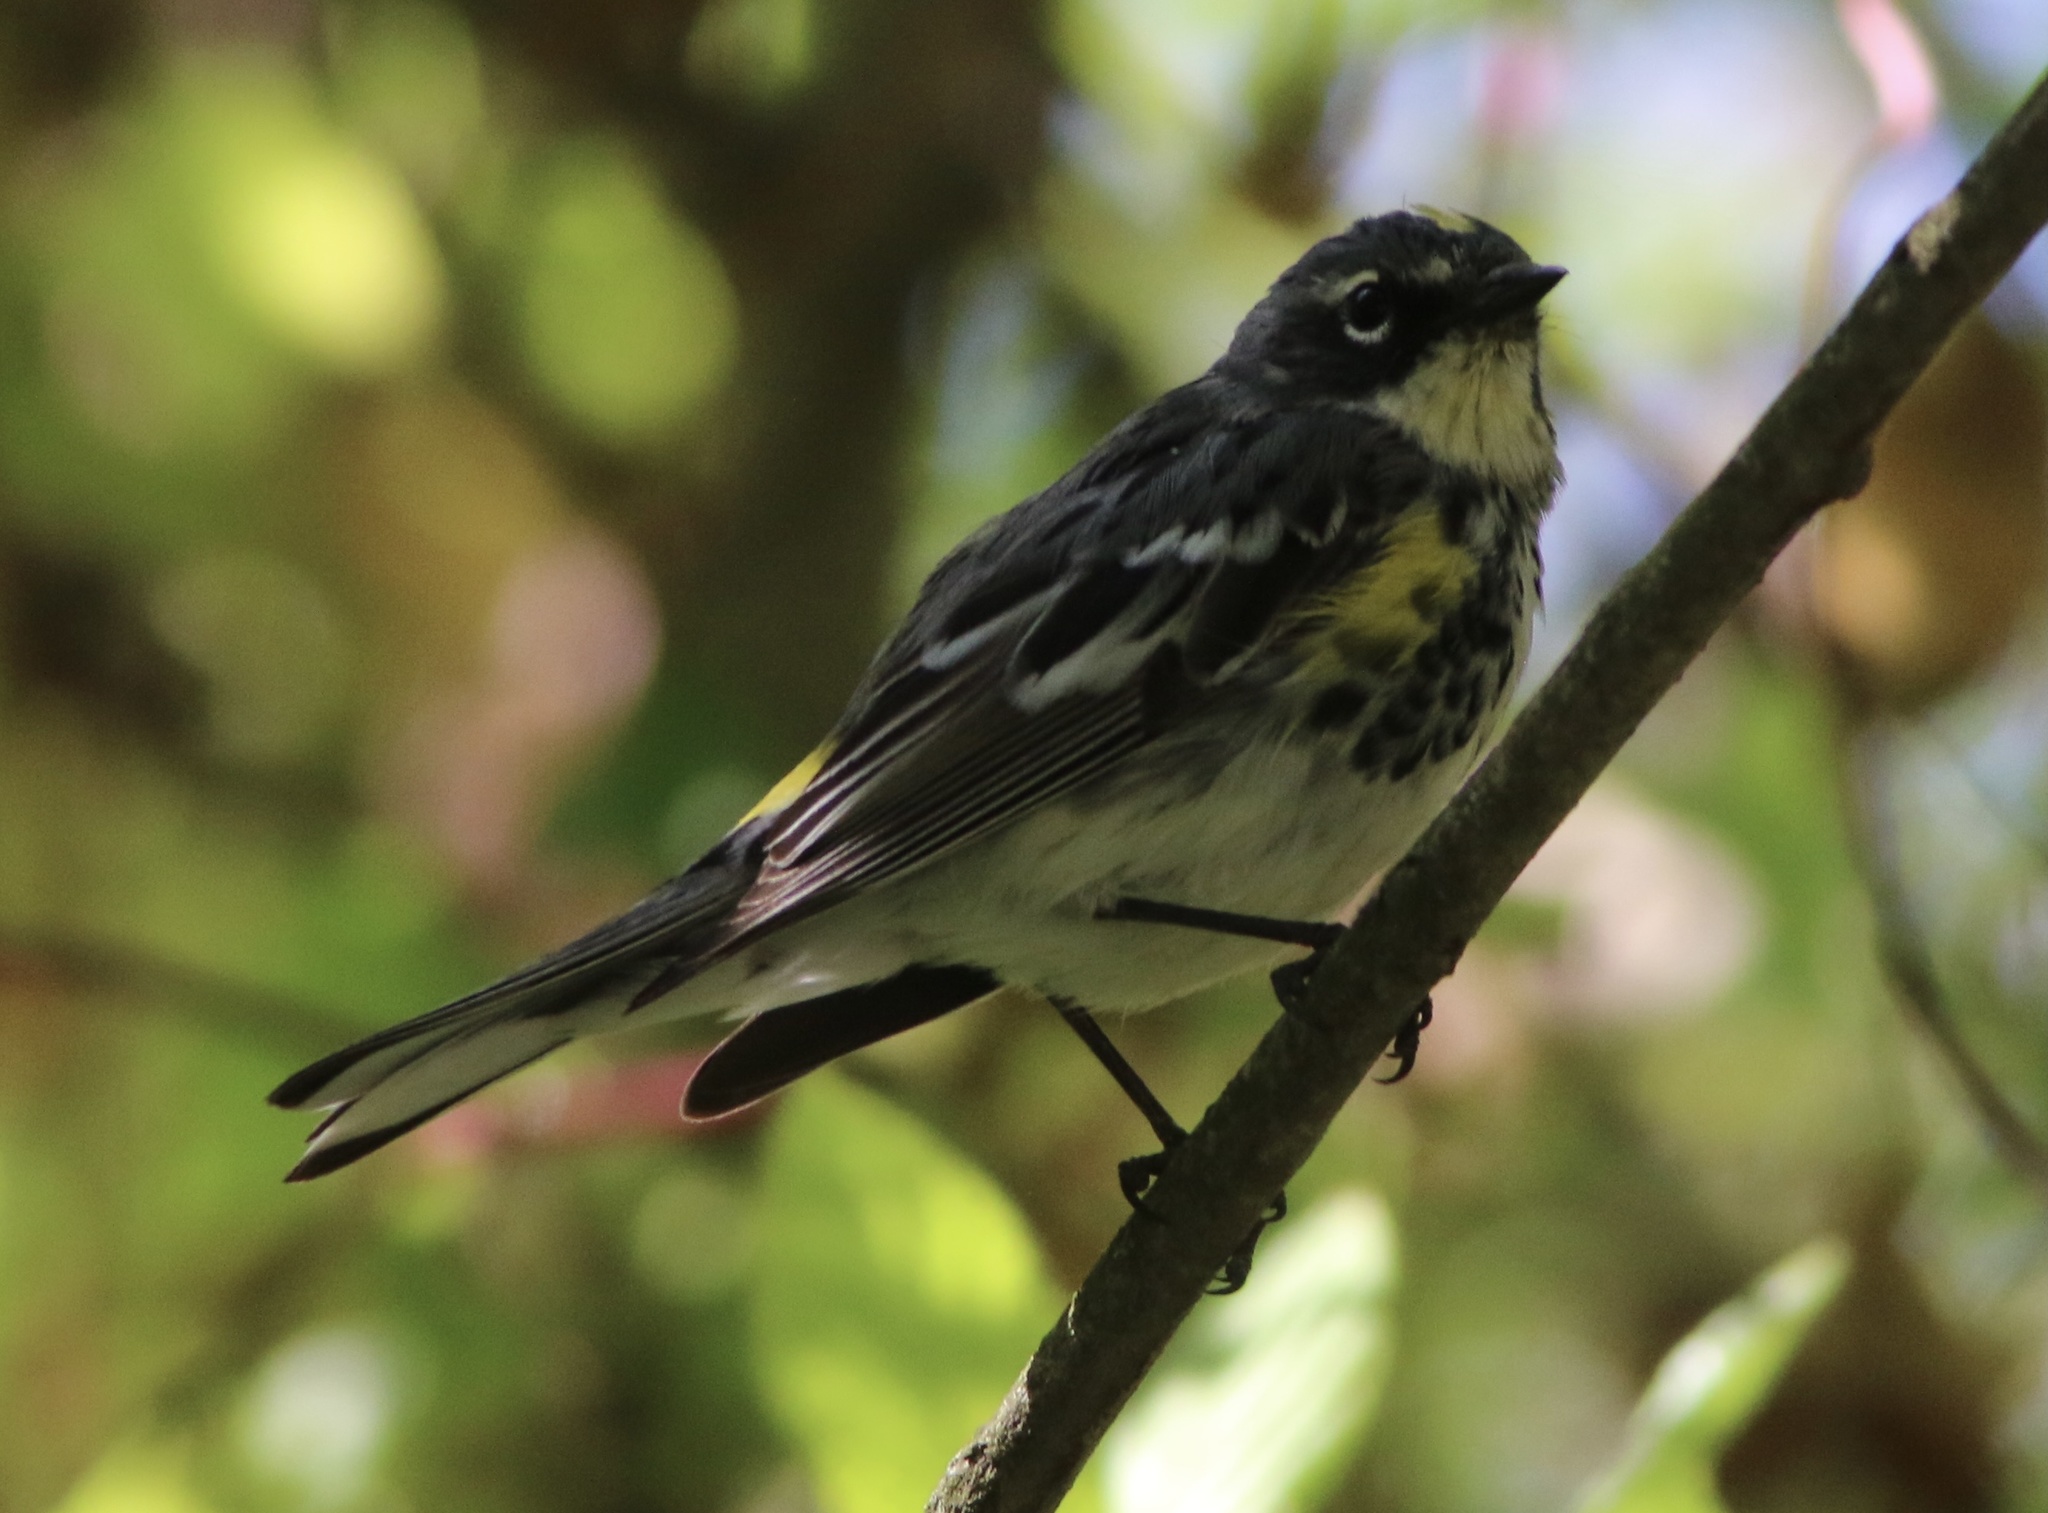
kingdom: Animalia
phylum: Chordata
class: Aves
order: Passeriformes
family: Parulidae
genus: Setophaga
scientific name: Setophaga coronata
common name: Myrtle warbler
